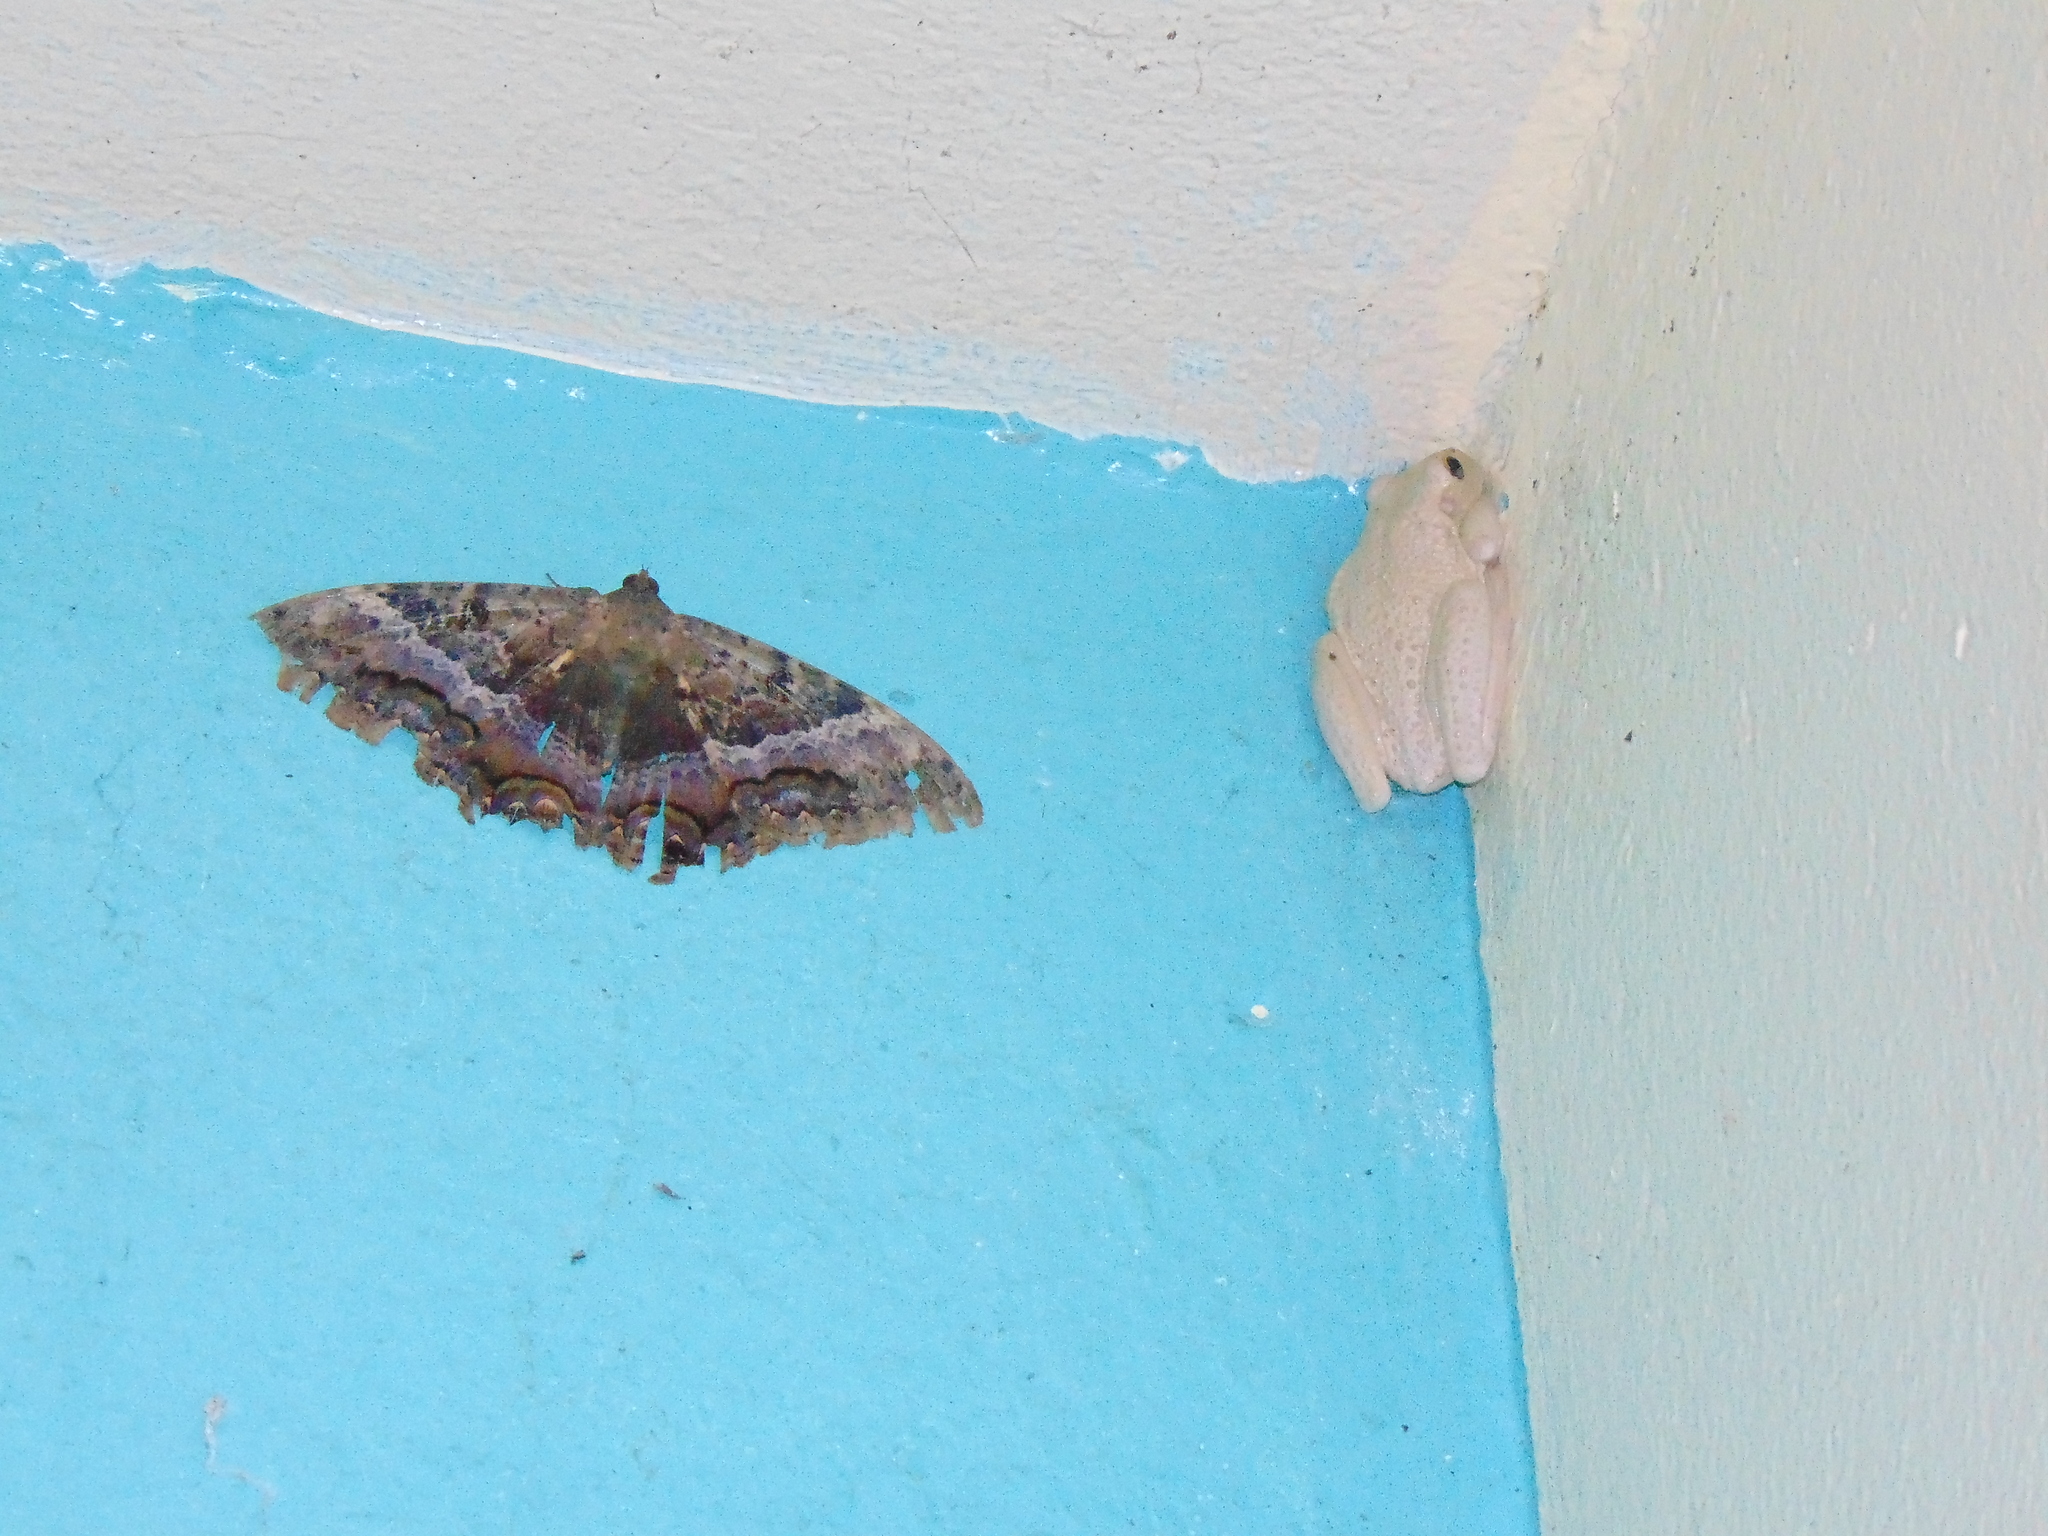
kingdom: Animalia
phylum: Chordata
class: Amphibia
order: Anura
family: Hylidae
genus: Osteopilus
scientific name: Osteopilus septentrionalis
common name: Cuban treefrog
